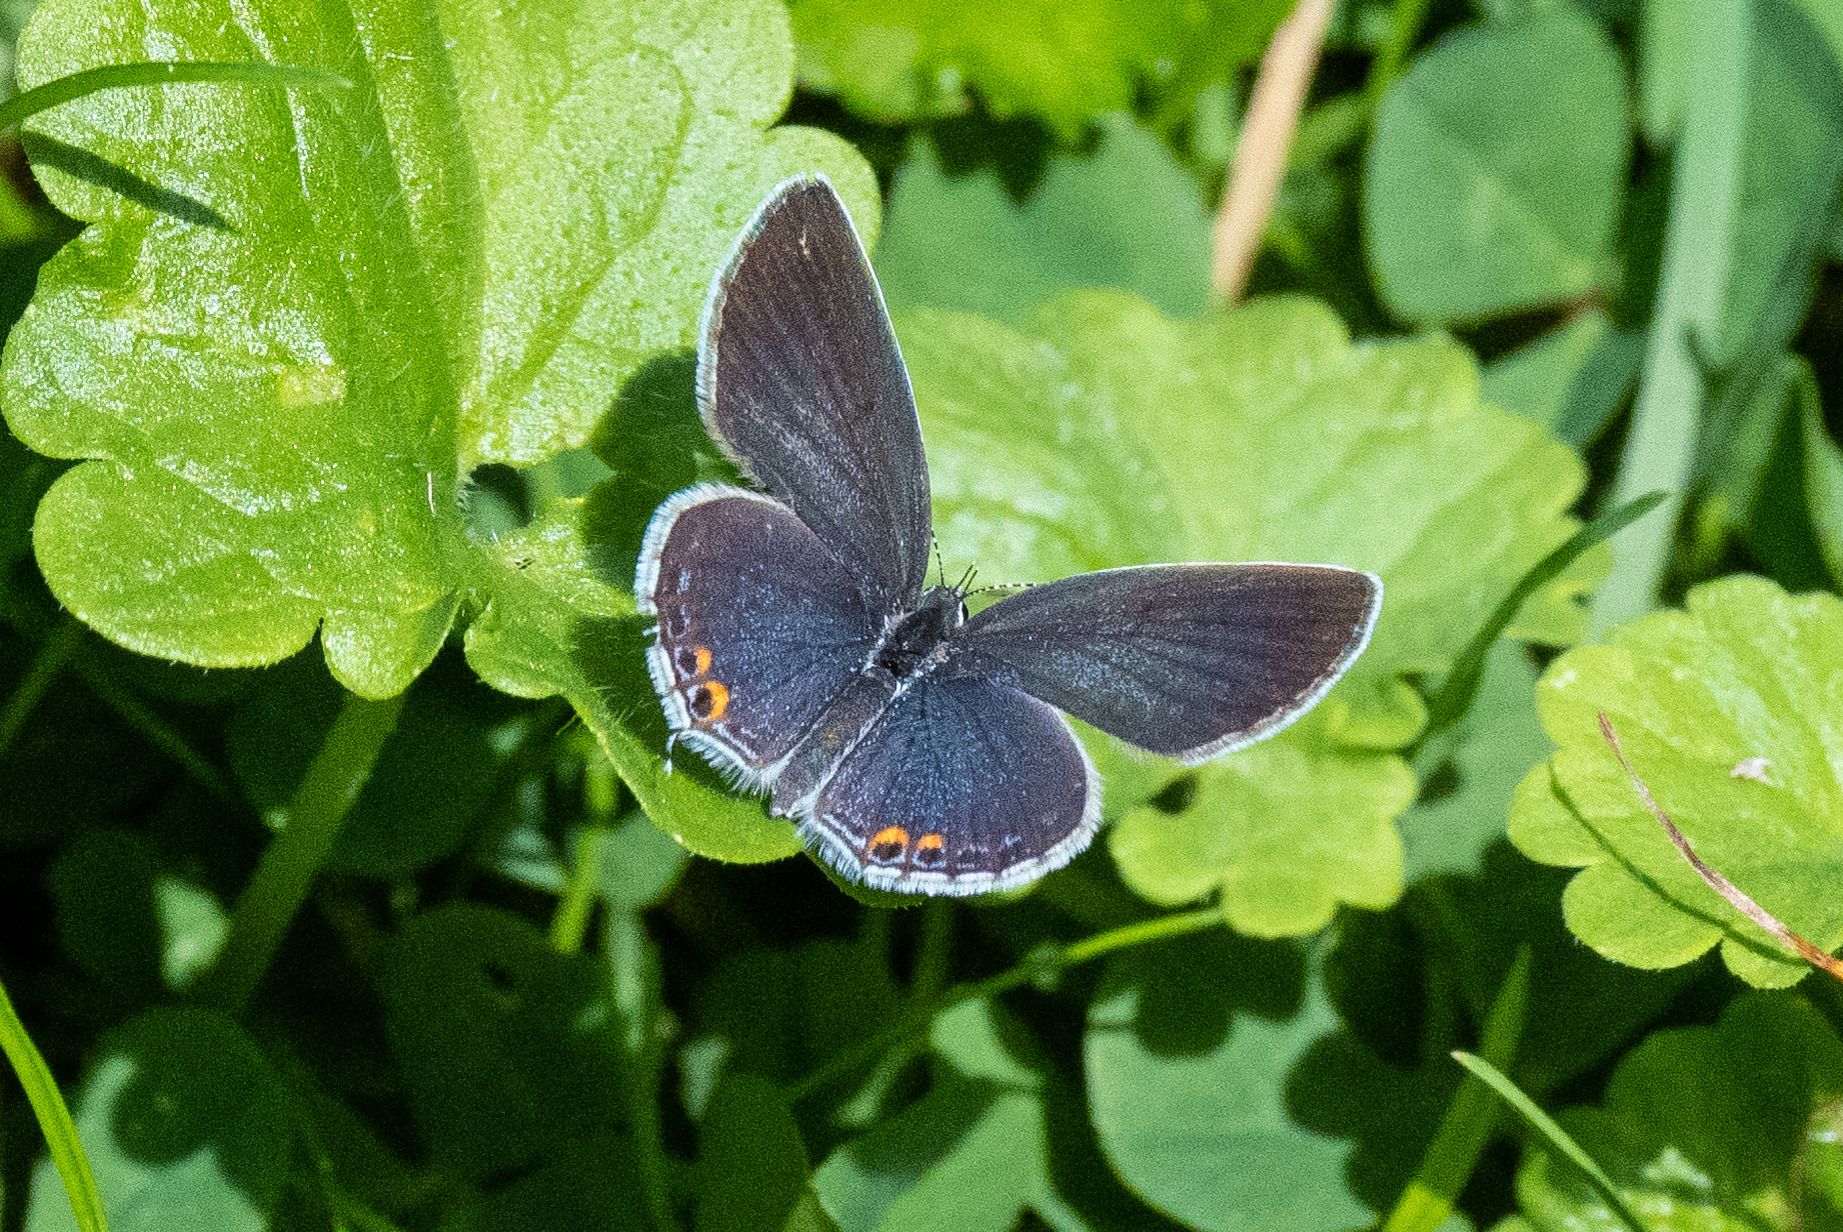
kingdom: Animalia
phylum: Arthropoda
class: Insecta
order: Lepidoptera
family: Lycaenidae
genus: Elkalyce
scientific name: Elkalyce comyntas
